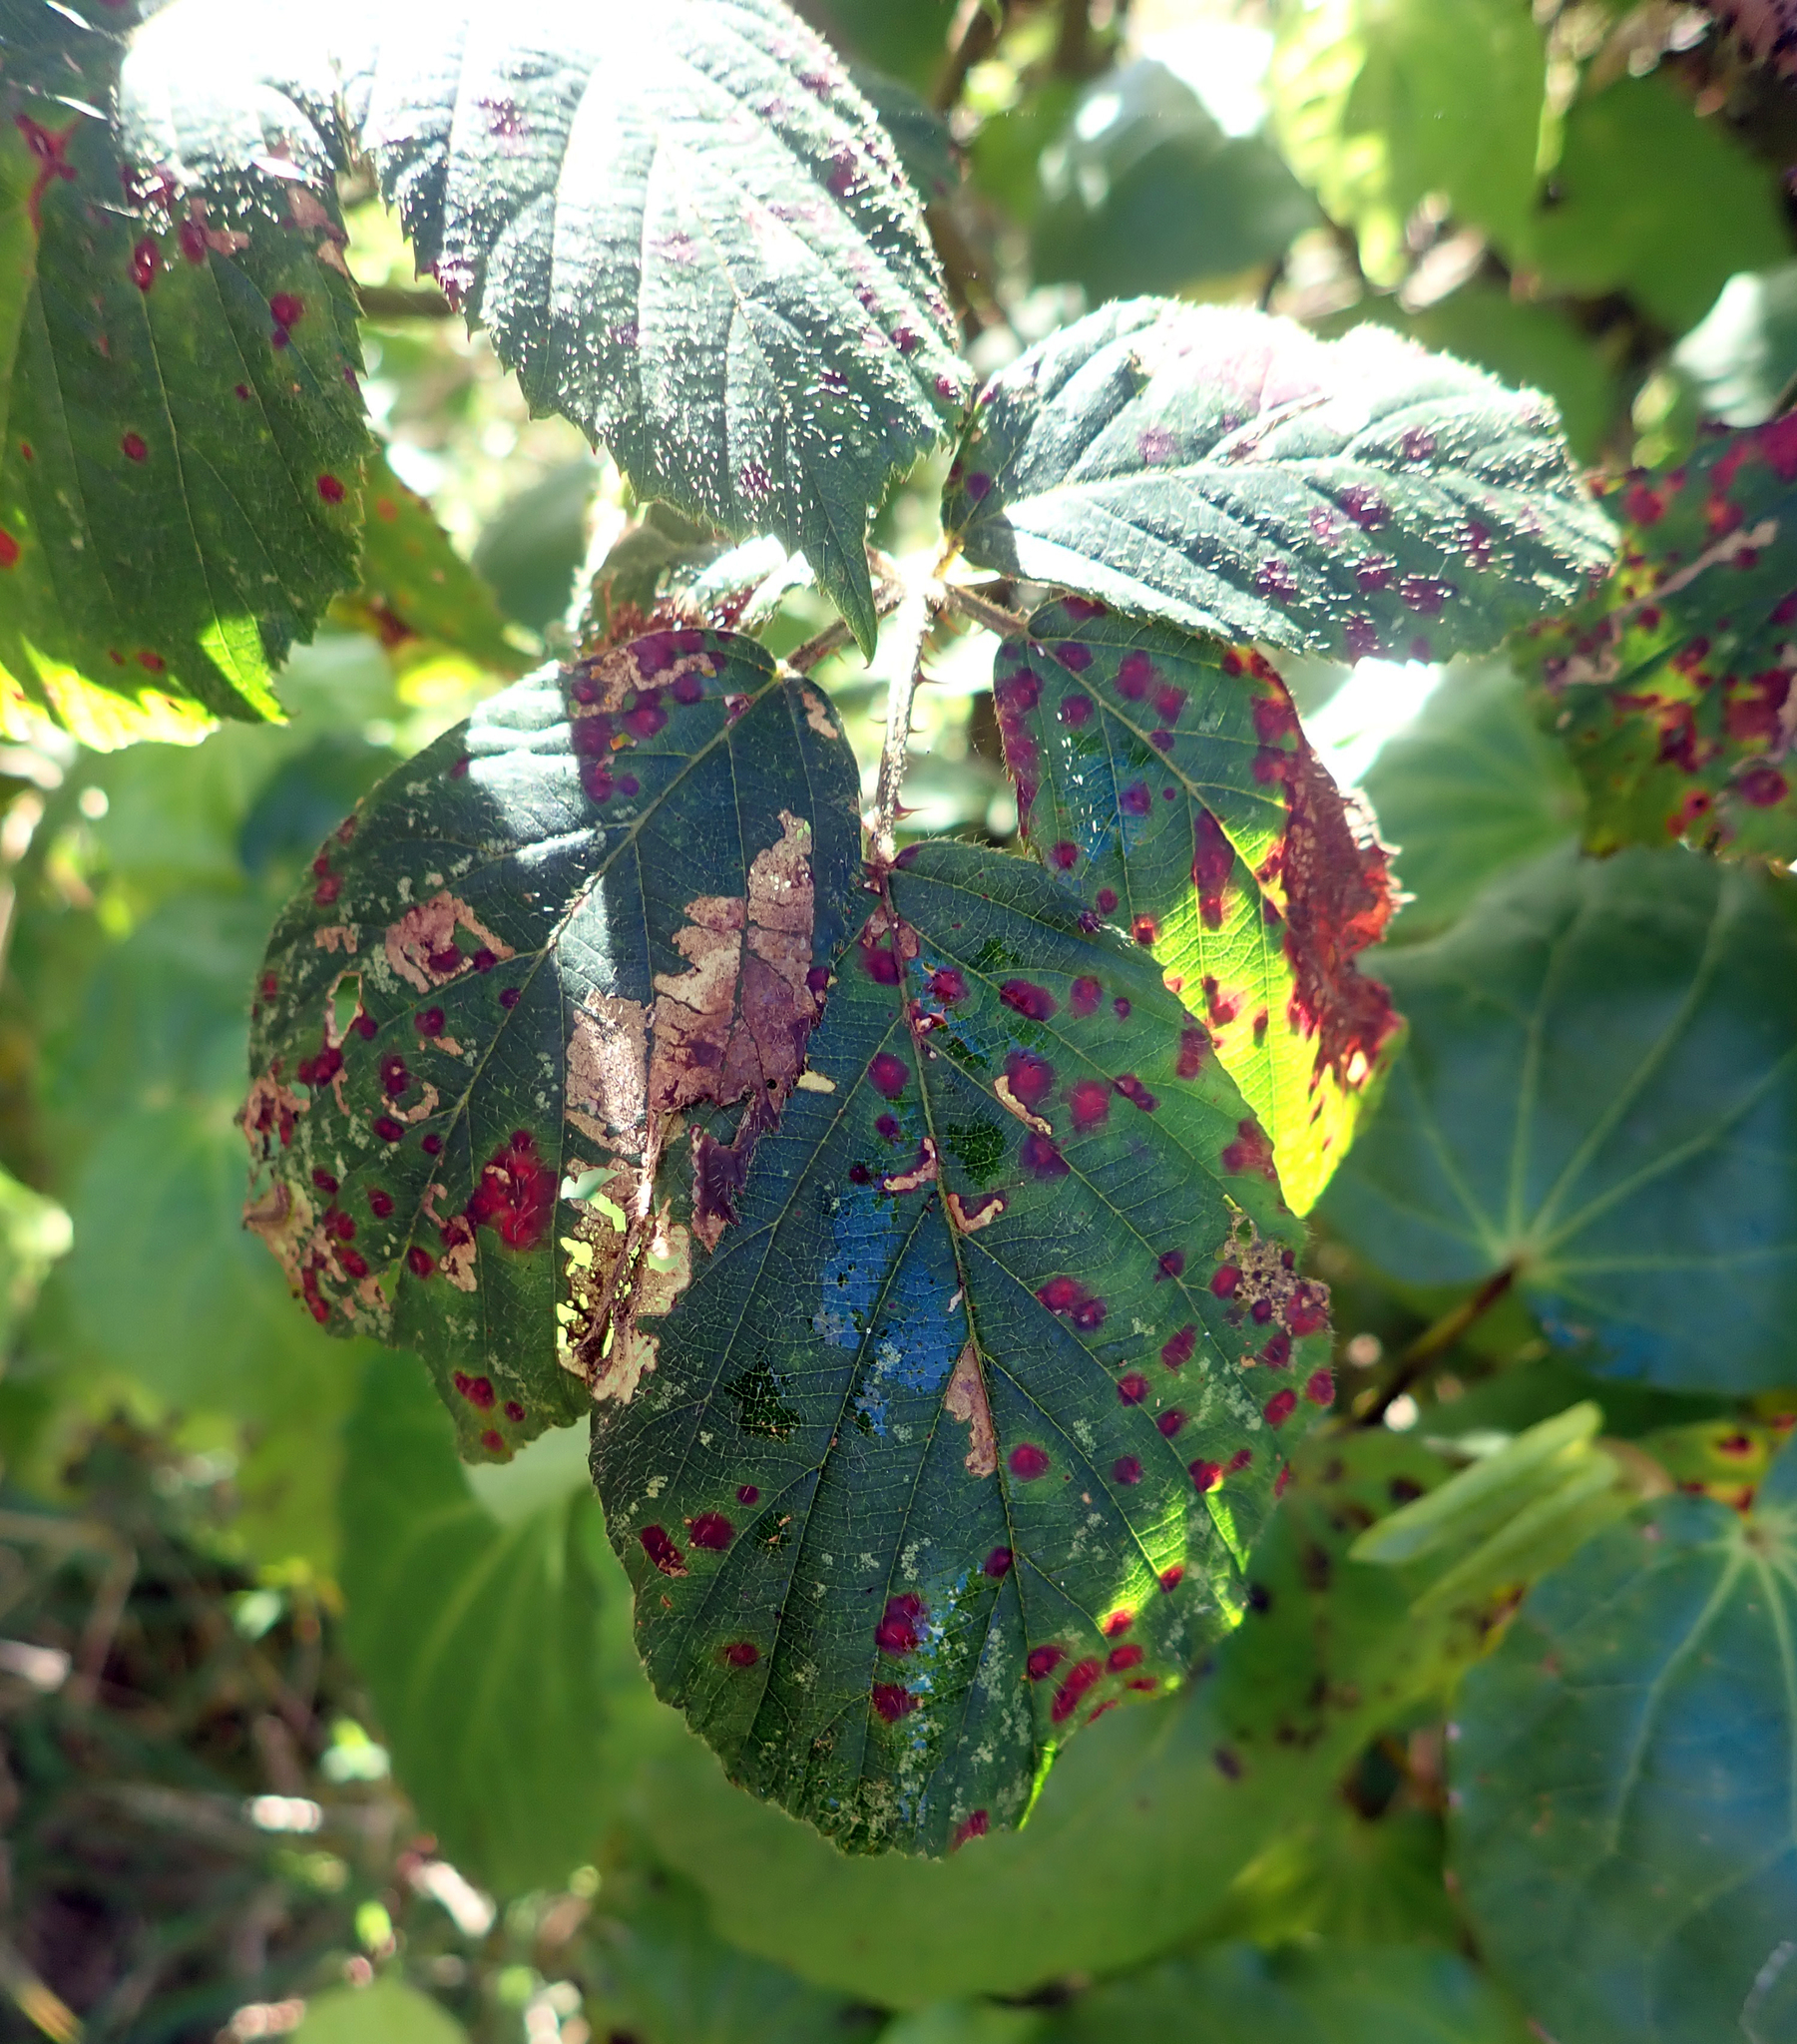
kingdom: Fungi
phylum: Basidiomycota
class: Pucciniomycetes
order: Pucciniales
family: Phragmidiaceae
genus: Phragmidium
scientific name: Phragmidium violaceum
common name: Violet bramble rust
